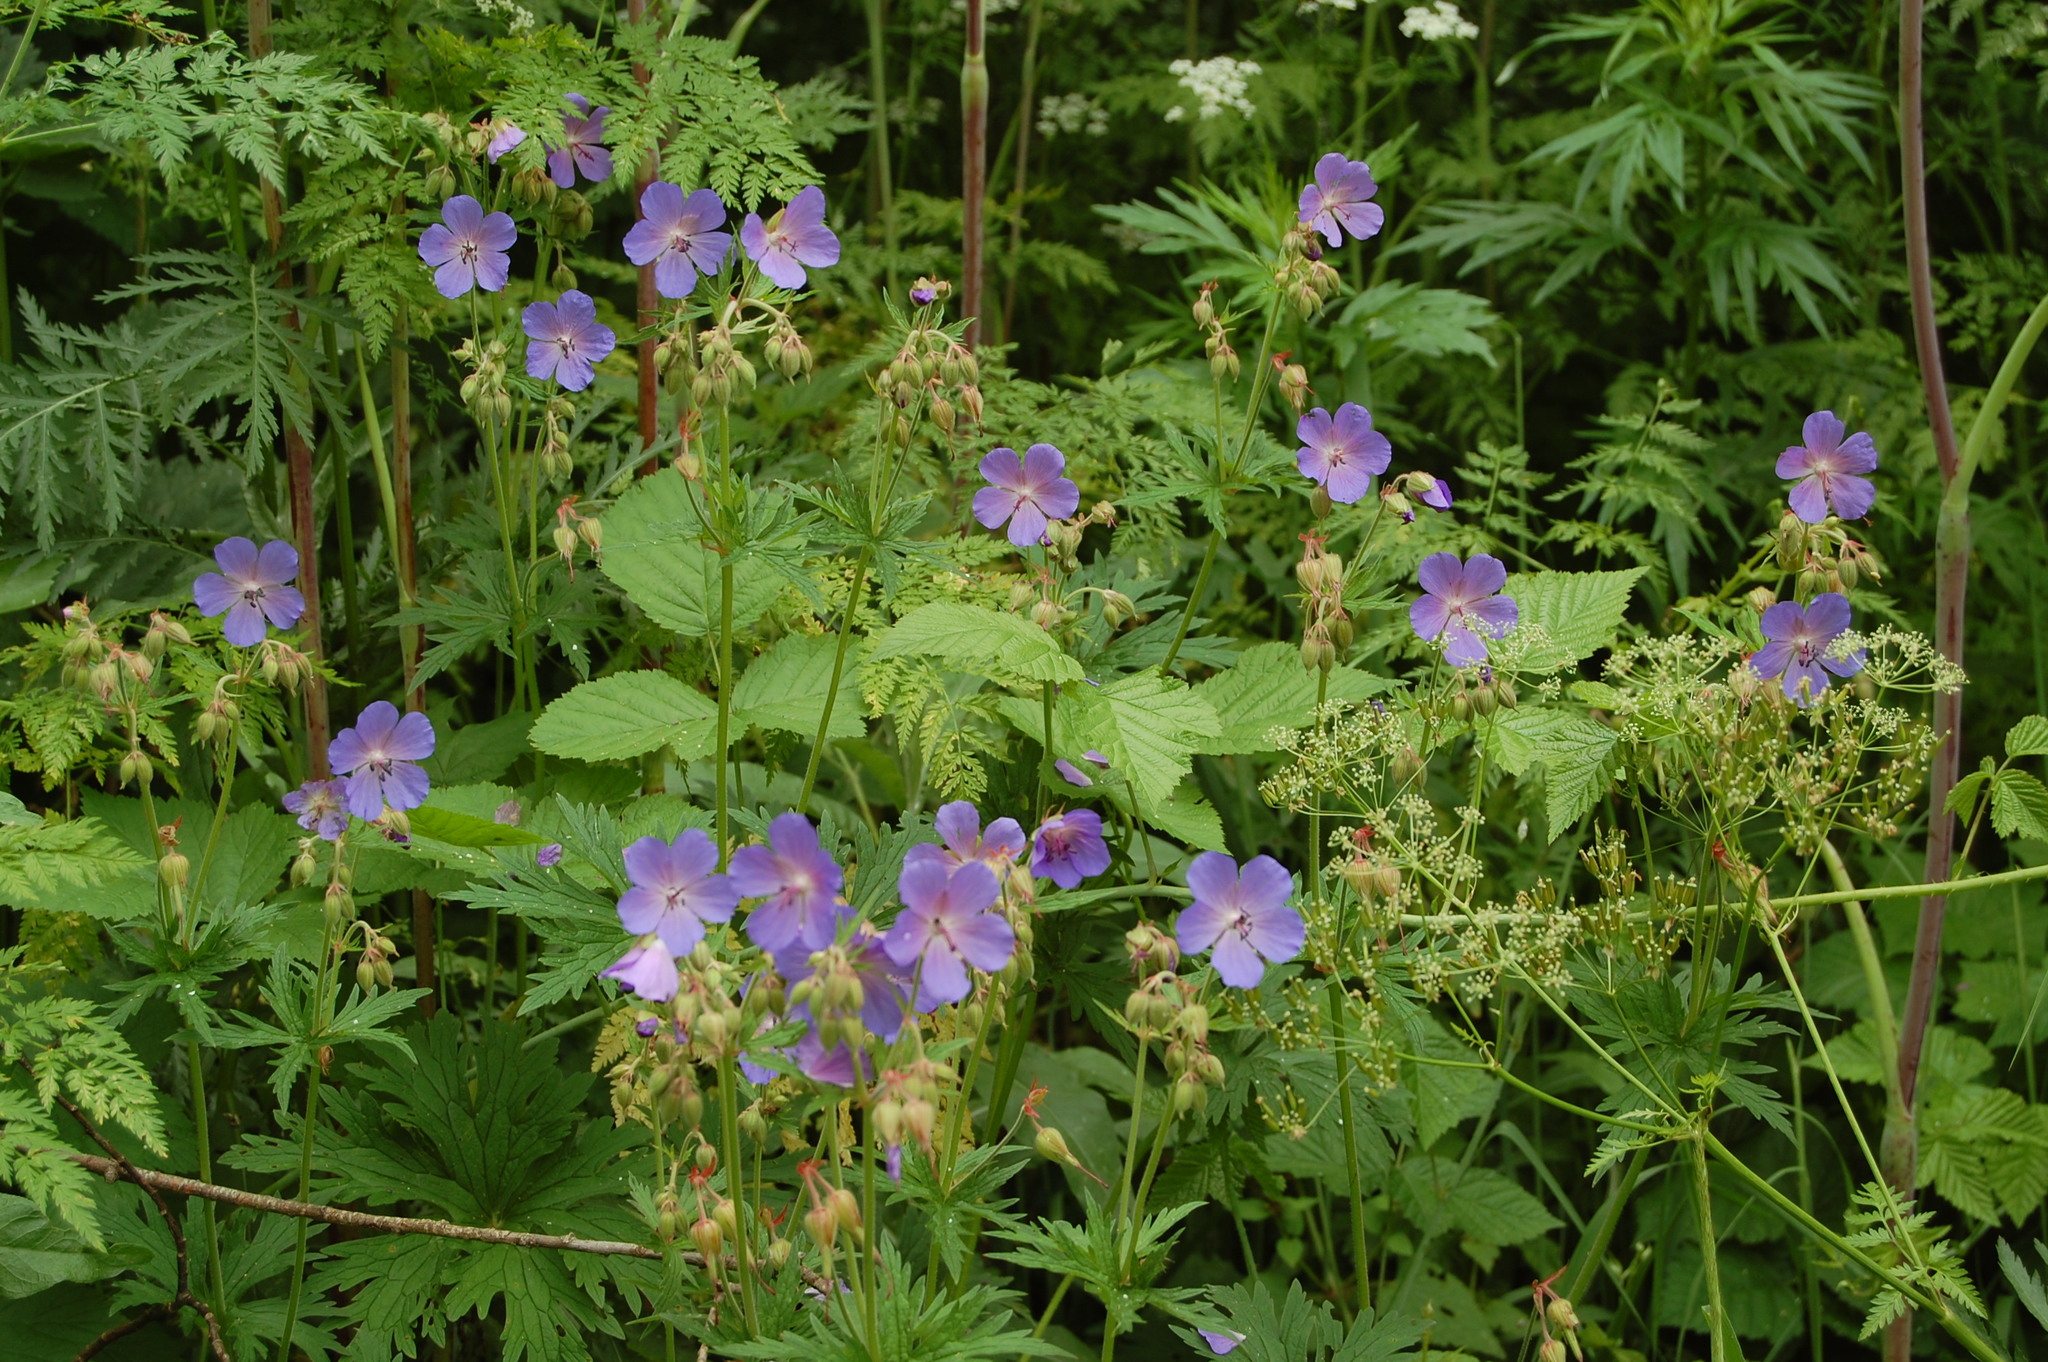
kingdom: Plantae
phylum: Tracheophyta
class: Magnoliopsida
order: Geraniales
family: Geraniaceae
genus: Geranium
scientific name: Geranium pratense
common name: Meadow crane's-bill
